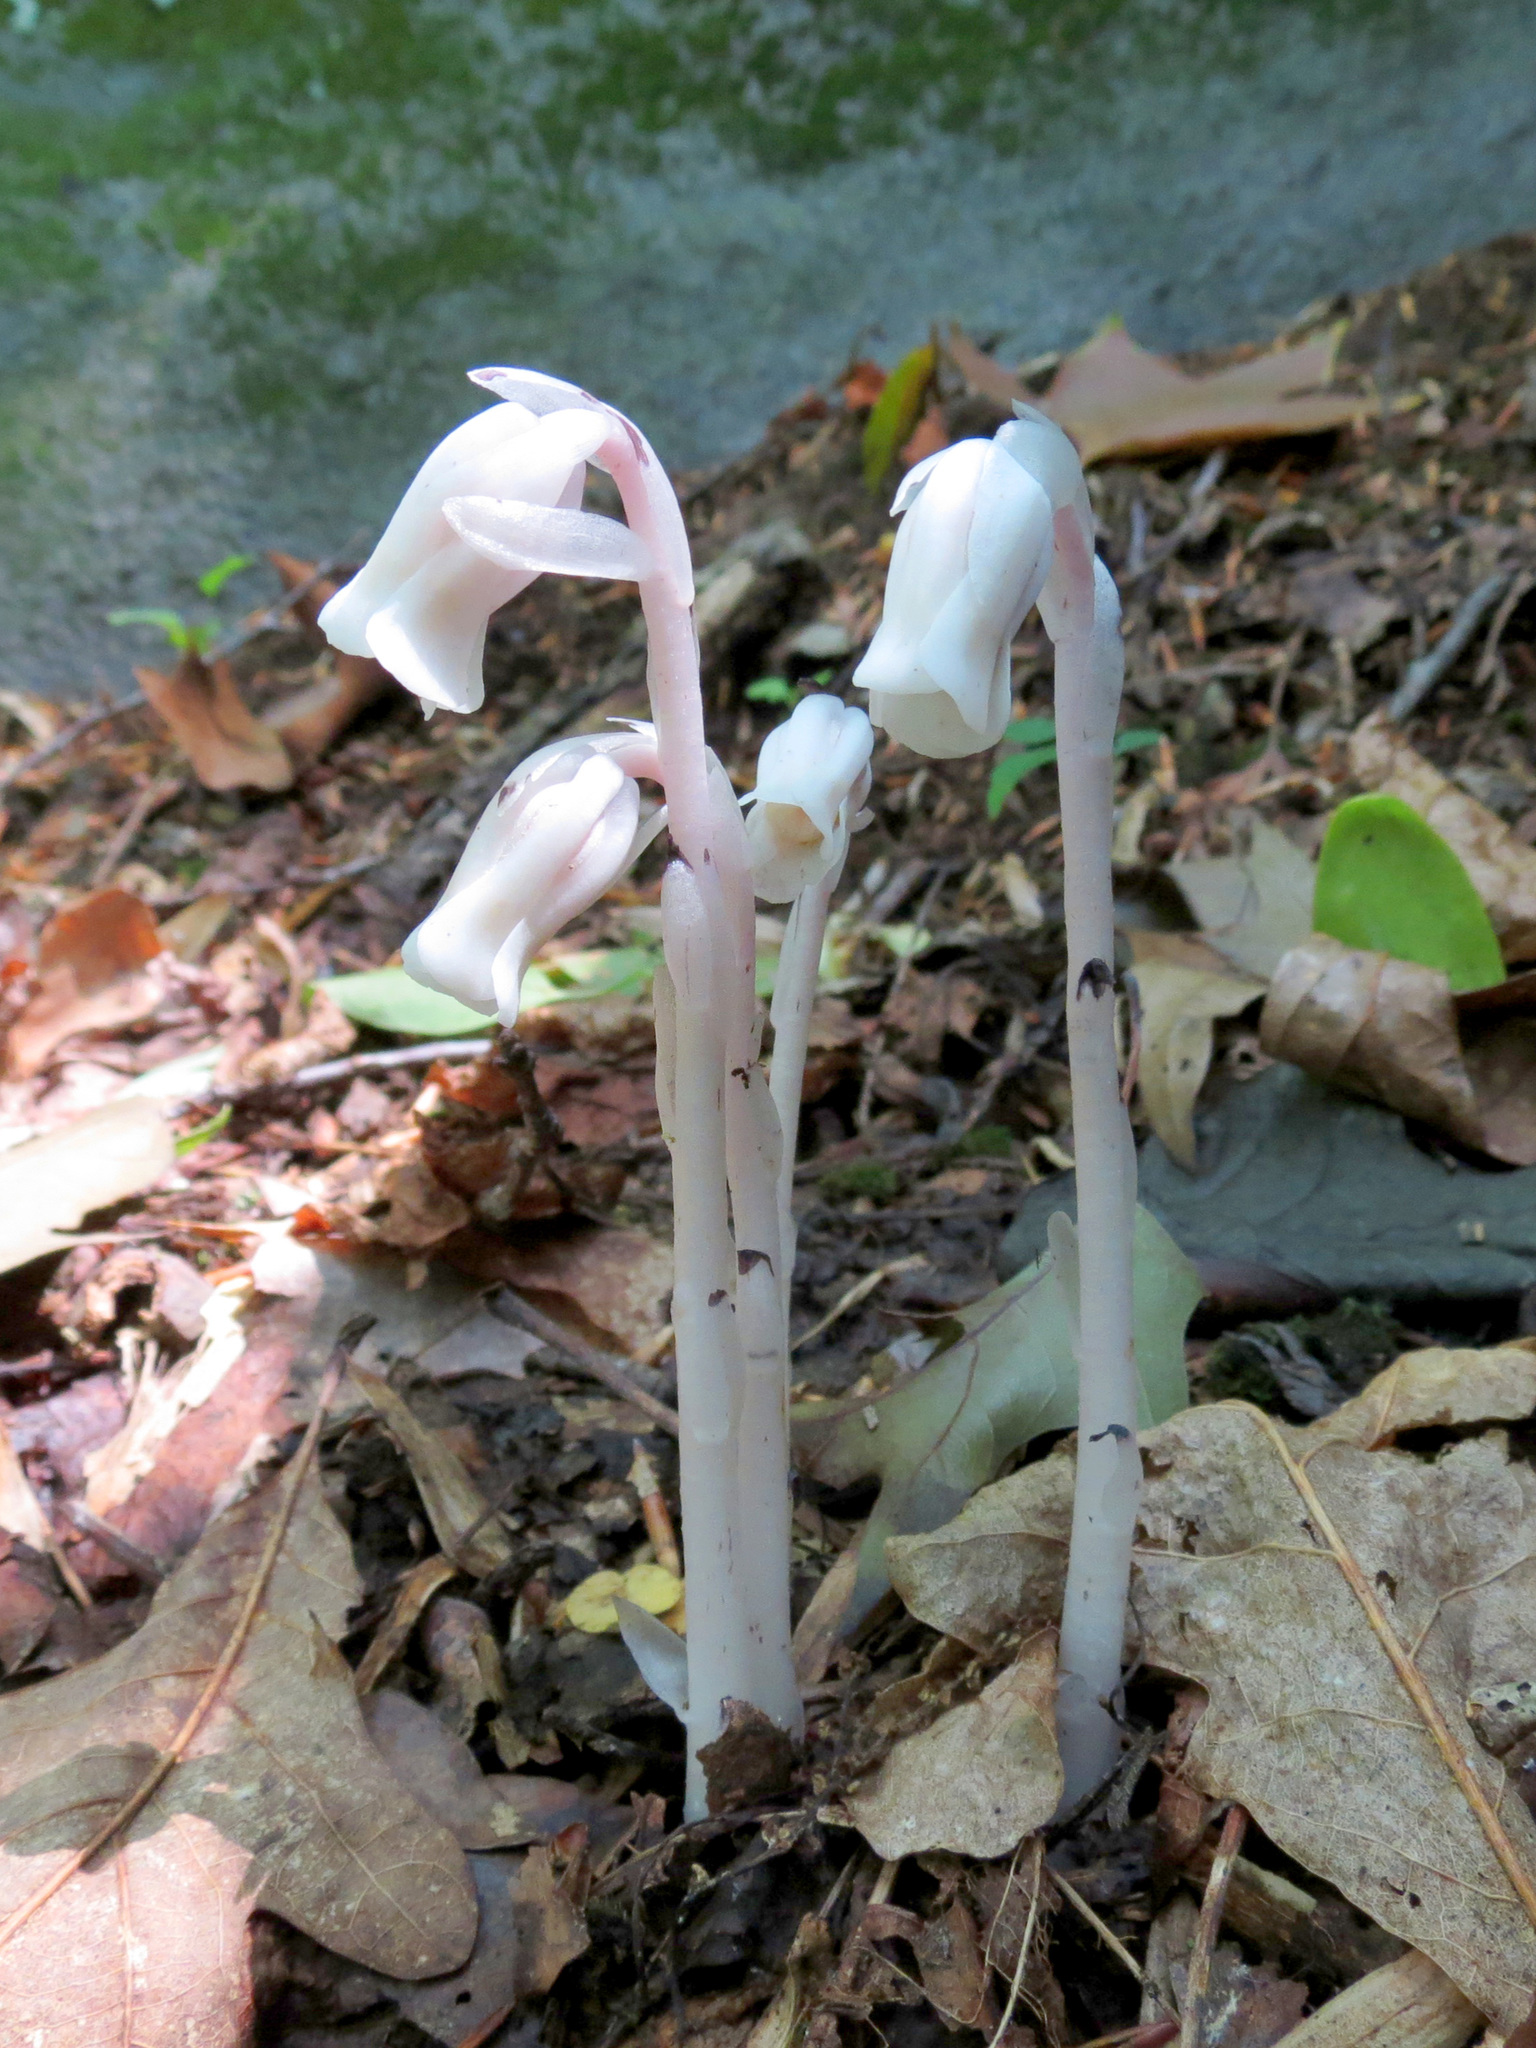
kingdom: Plantae
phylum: Tracheophyta
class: Magnoliopsida
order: Ericales
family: Ericaceae
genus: Monotropa
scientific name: Monotropa uniflora
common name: Convulsion root
